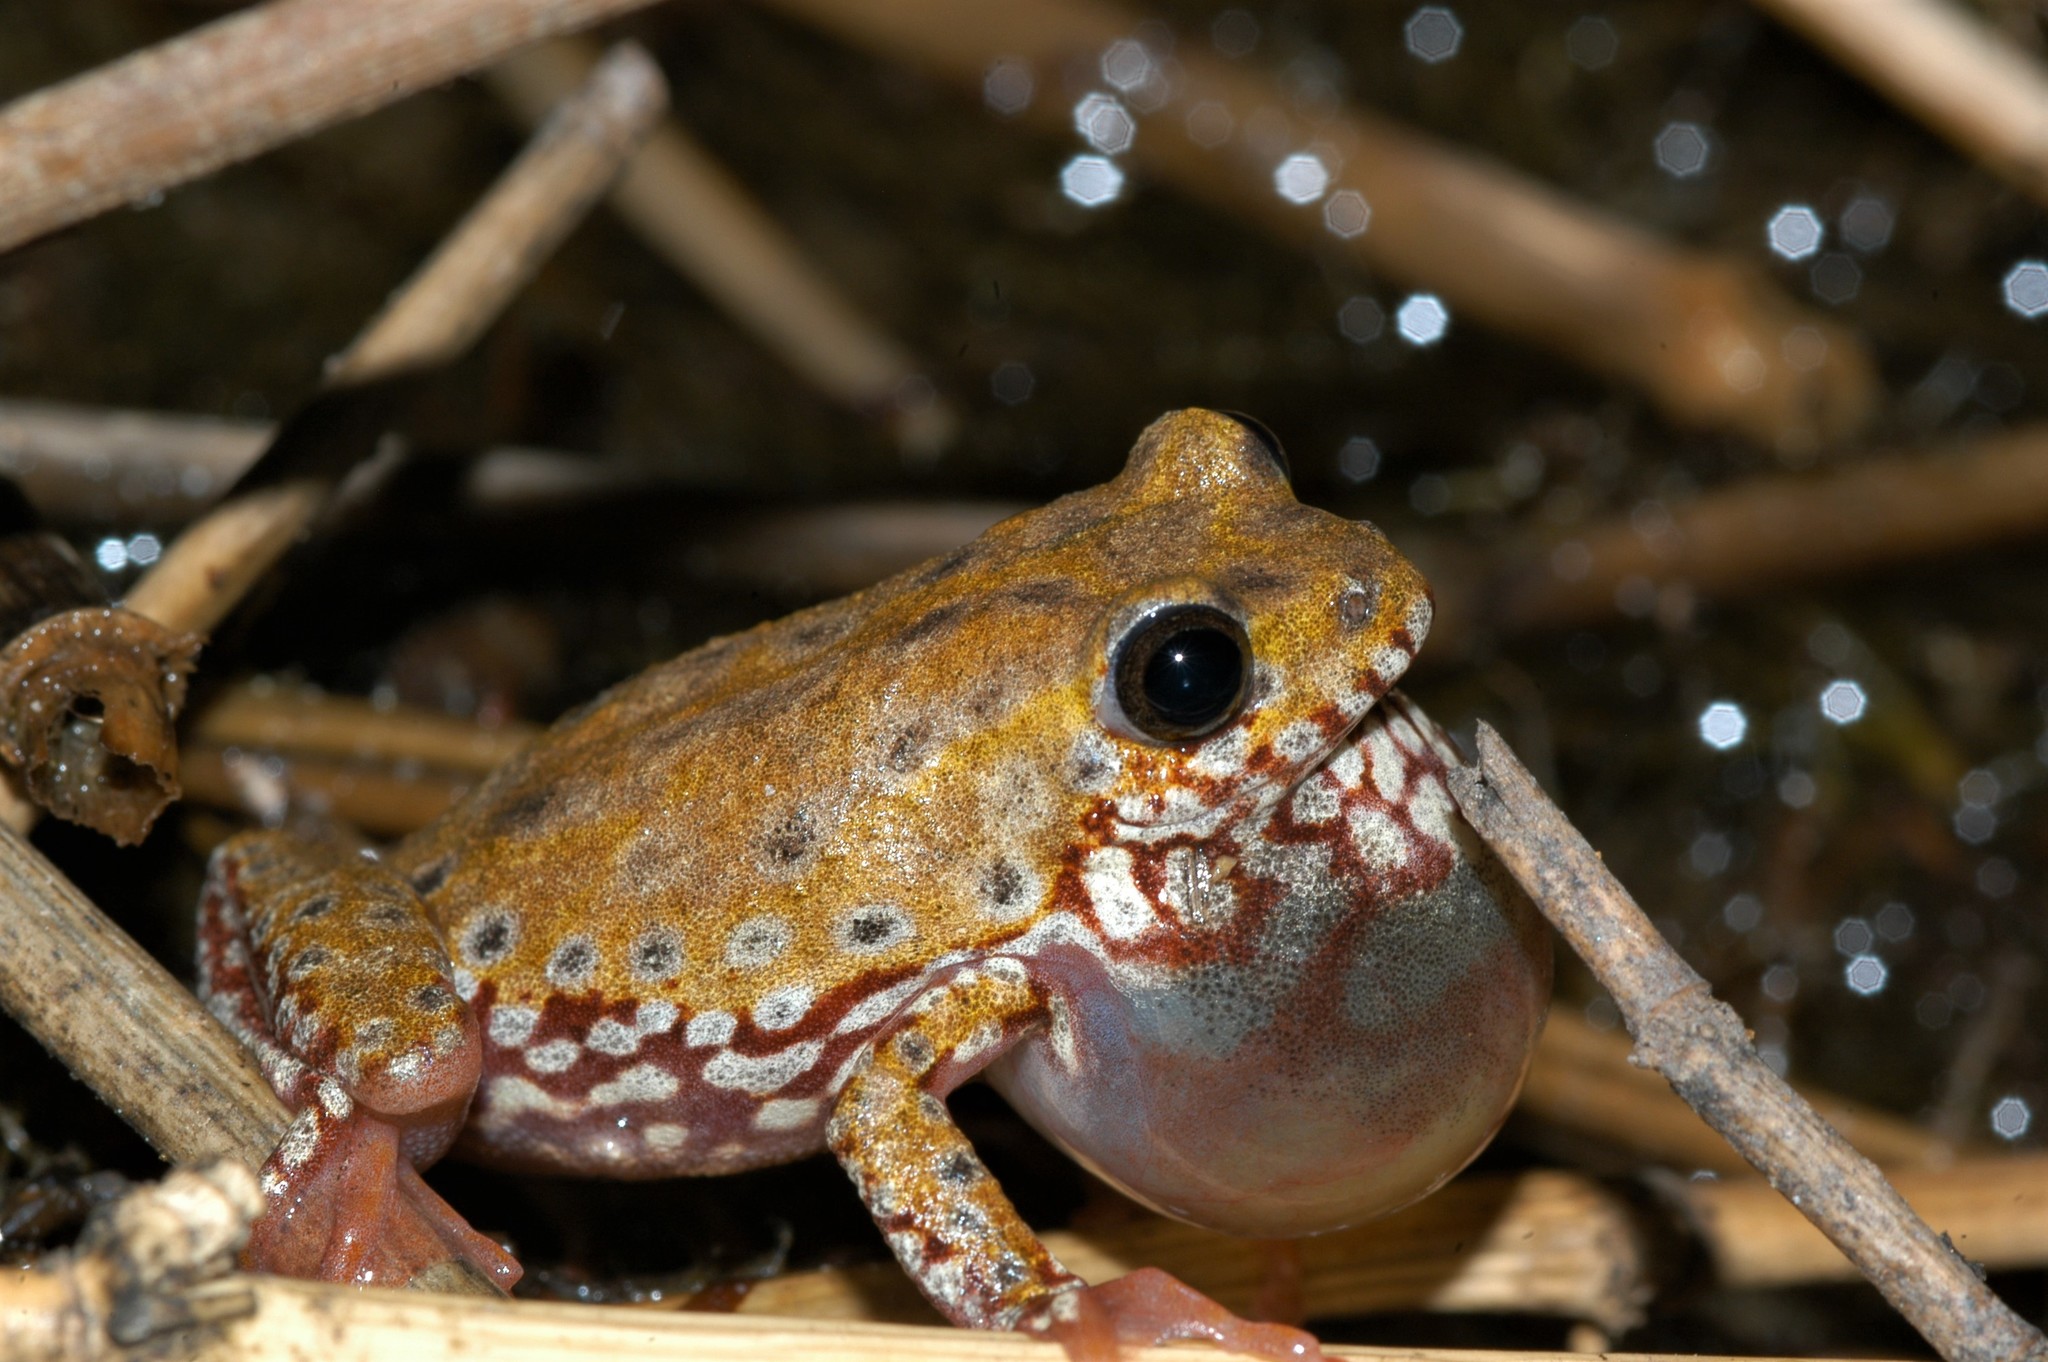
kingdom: Animalia
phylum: Chordata
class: Amphibia
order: Anura
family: Hyperoliidae
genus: Hyperolius
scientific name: Hyperolius marginatus
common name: Silver-striped sedgefrog
